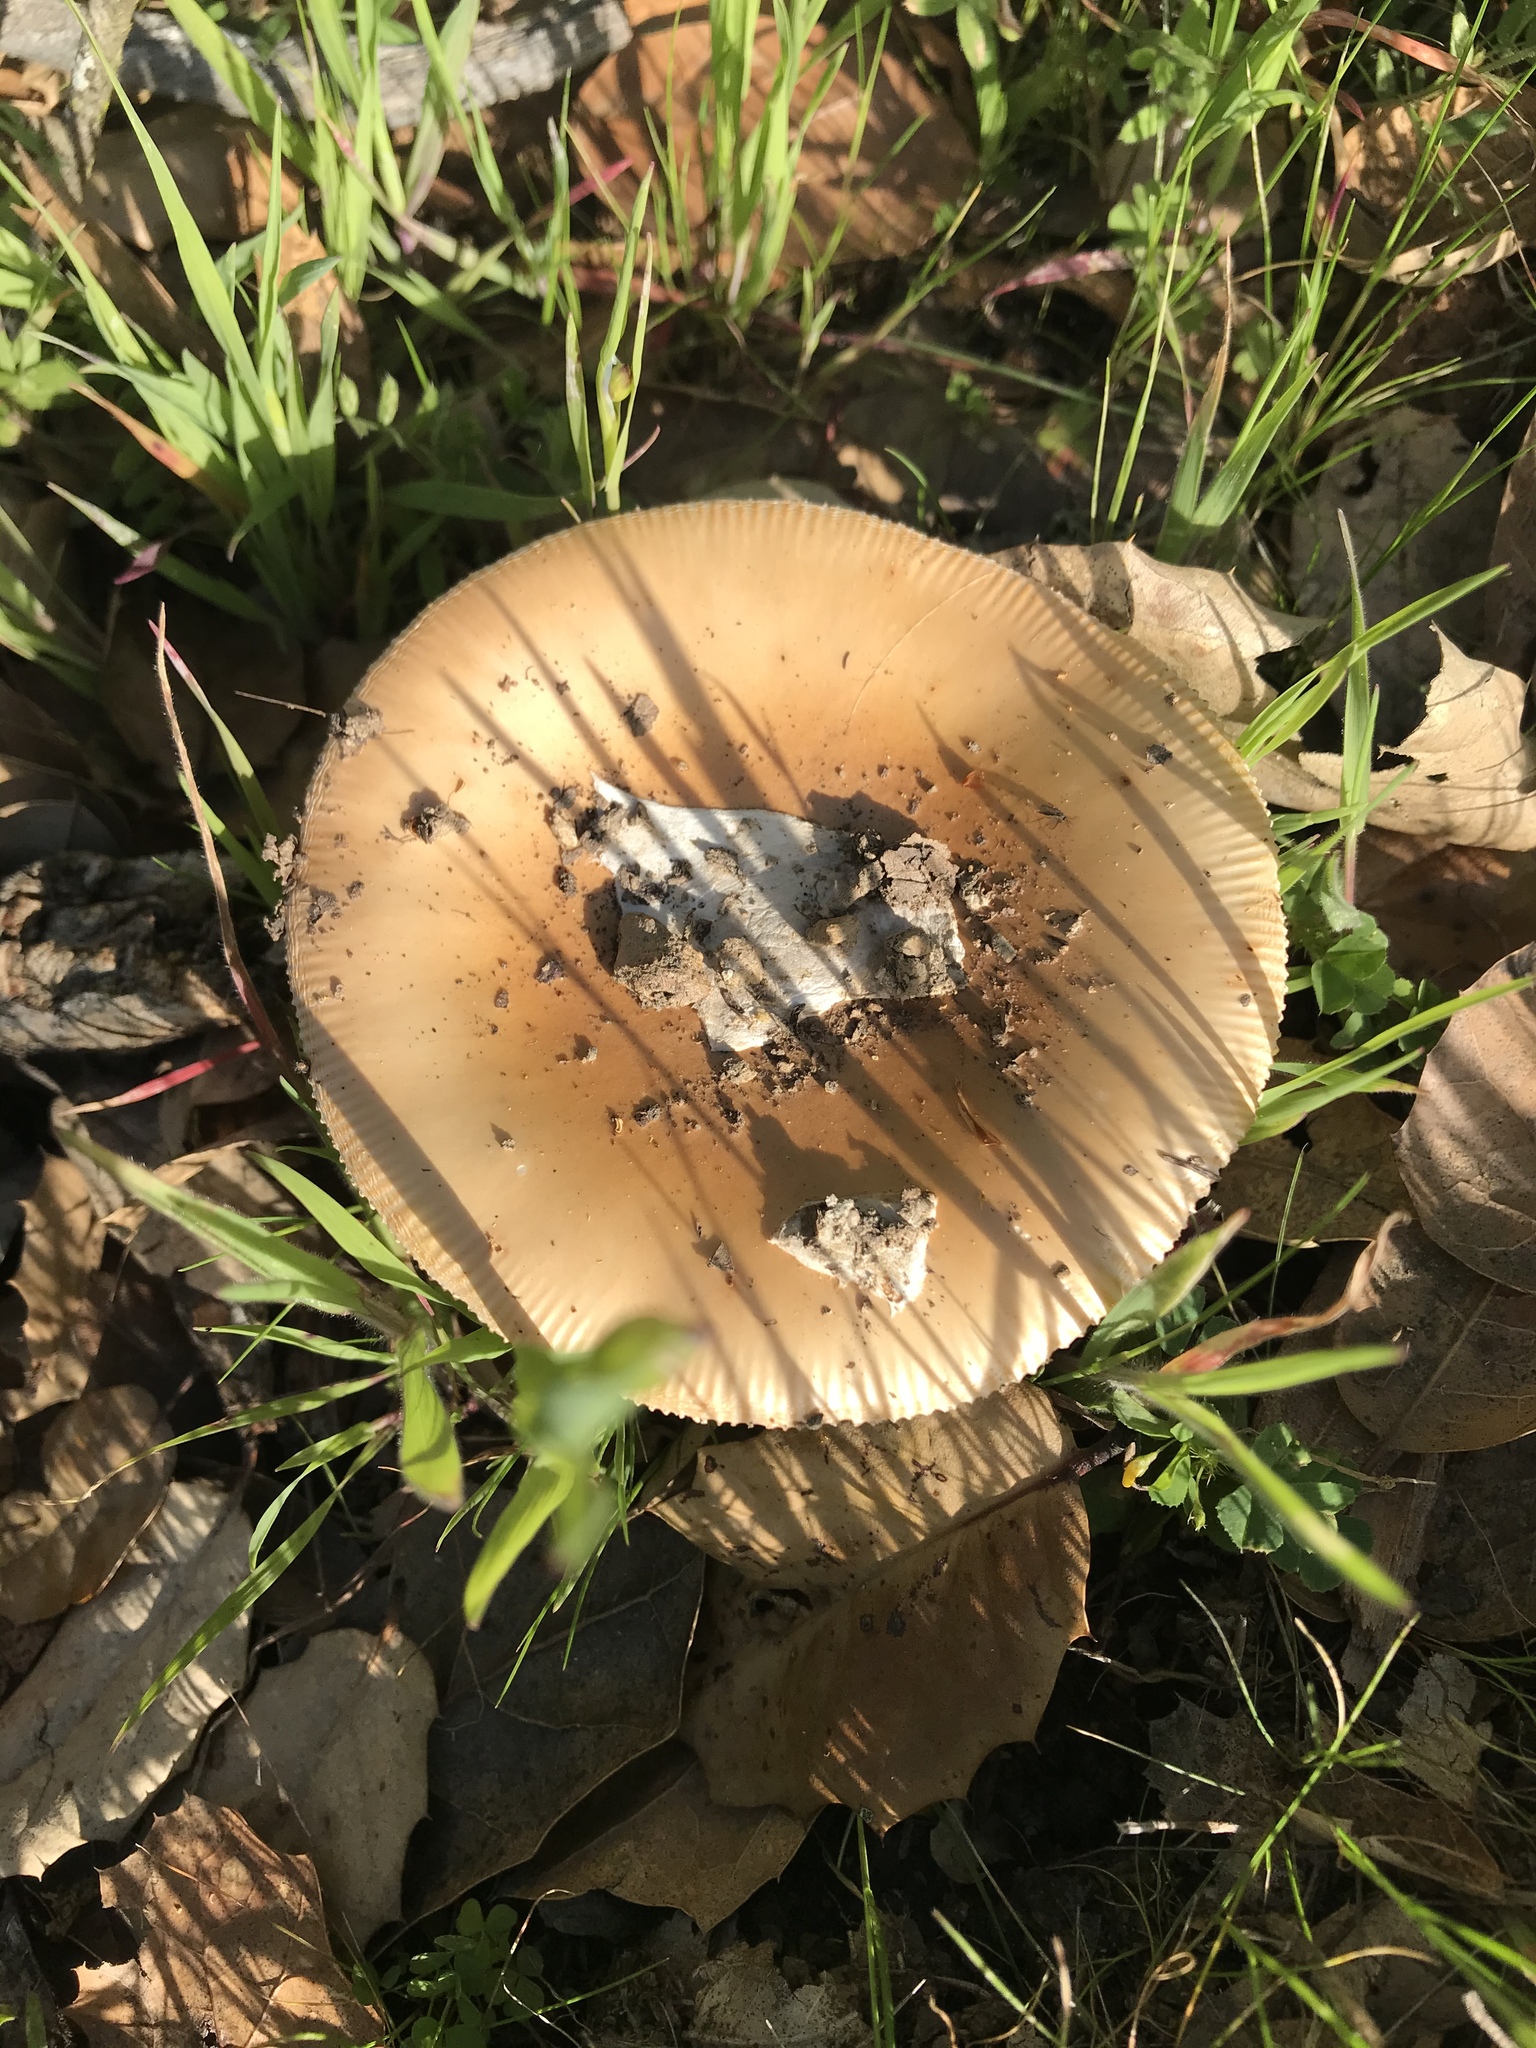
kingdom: Fungi
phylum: Basidiomycota
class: Agaricomycetes
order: Agaricales
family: Amanitaceae
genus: Amanita
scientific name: Amanita velosa
